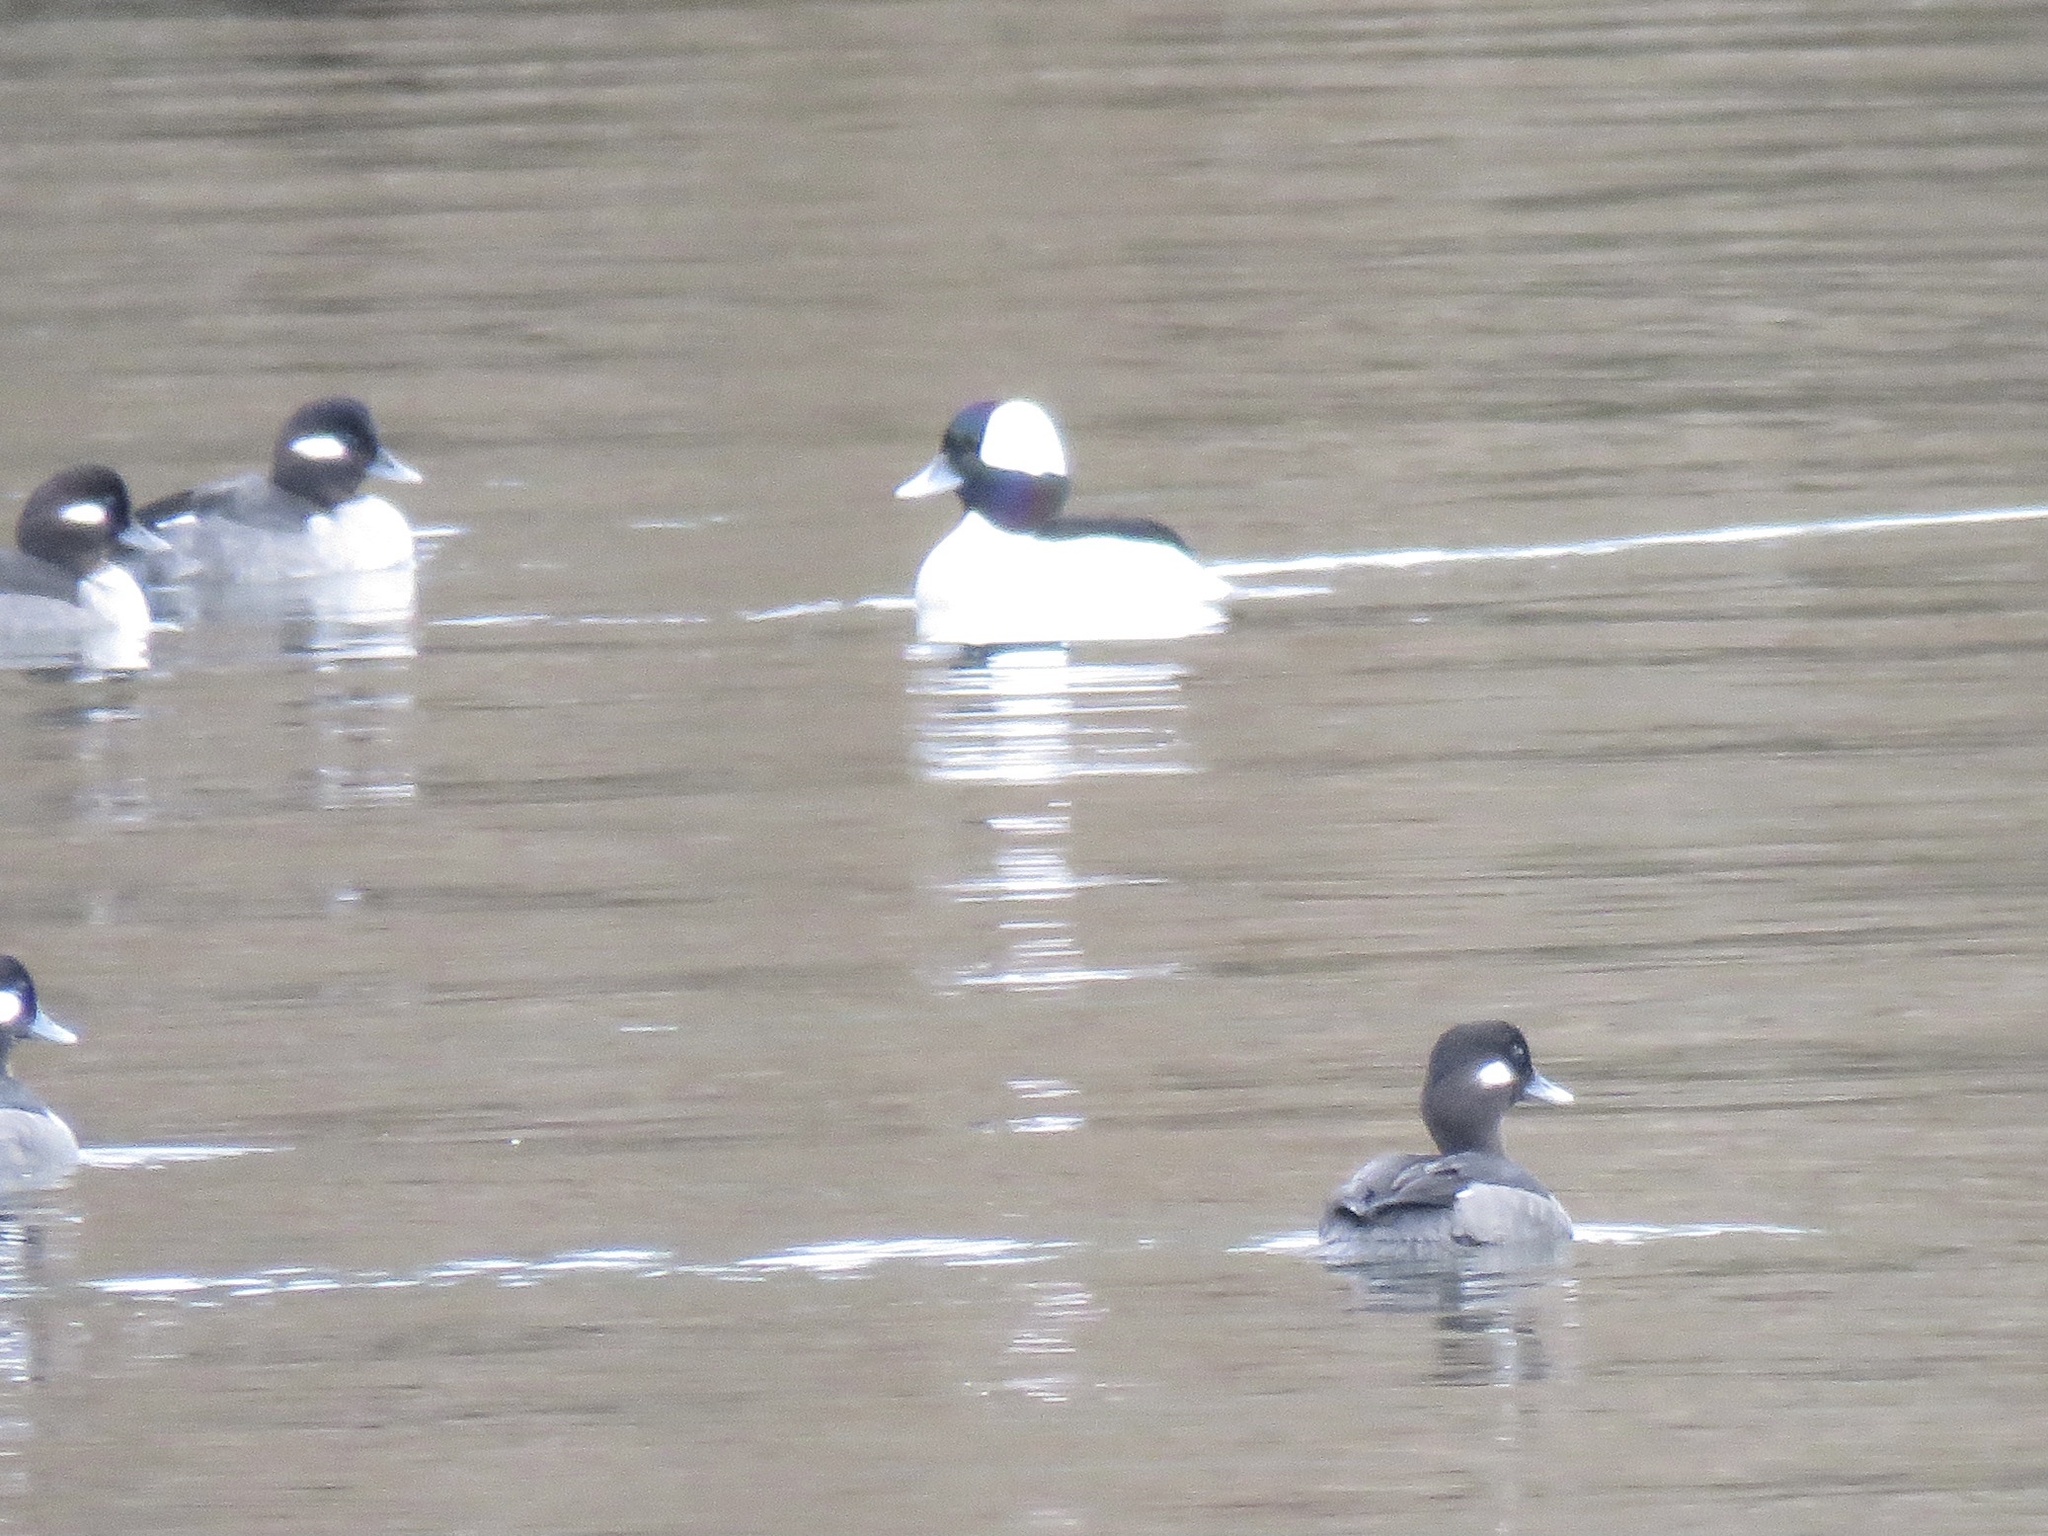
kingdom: Animalia
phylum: Chordata
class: Aves
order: Anseriformes
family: Anatidae
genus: Bucephala
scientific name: Bucephala albeola
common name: Bufflehead
